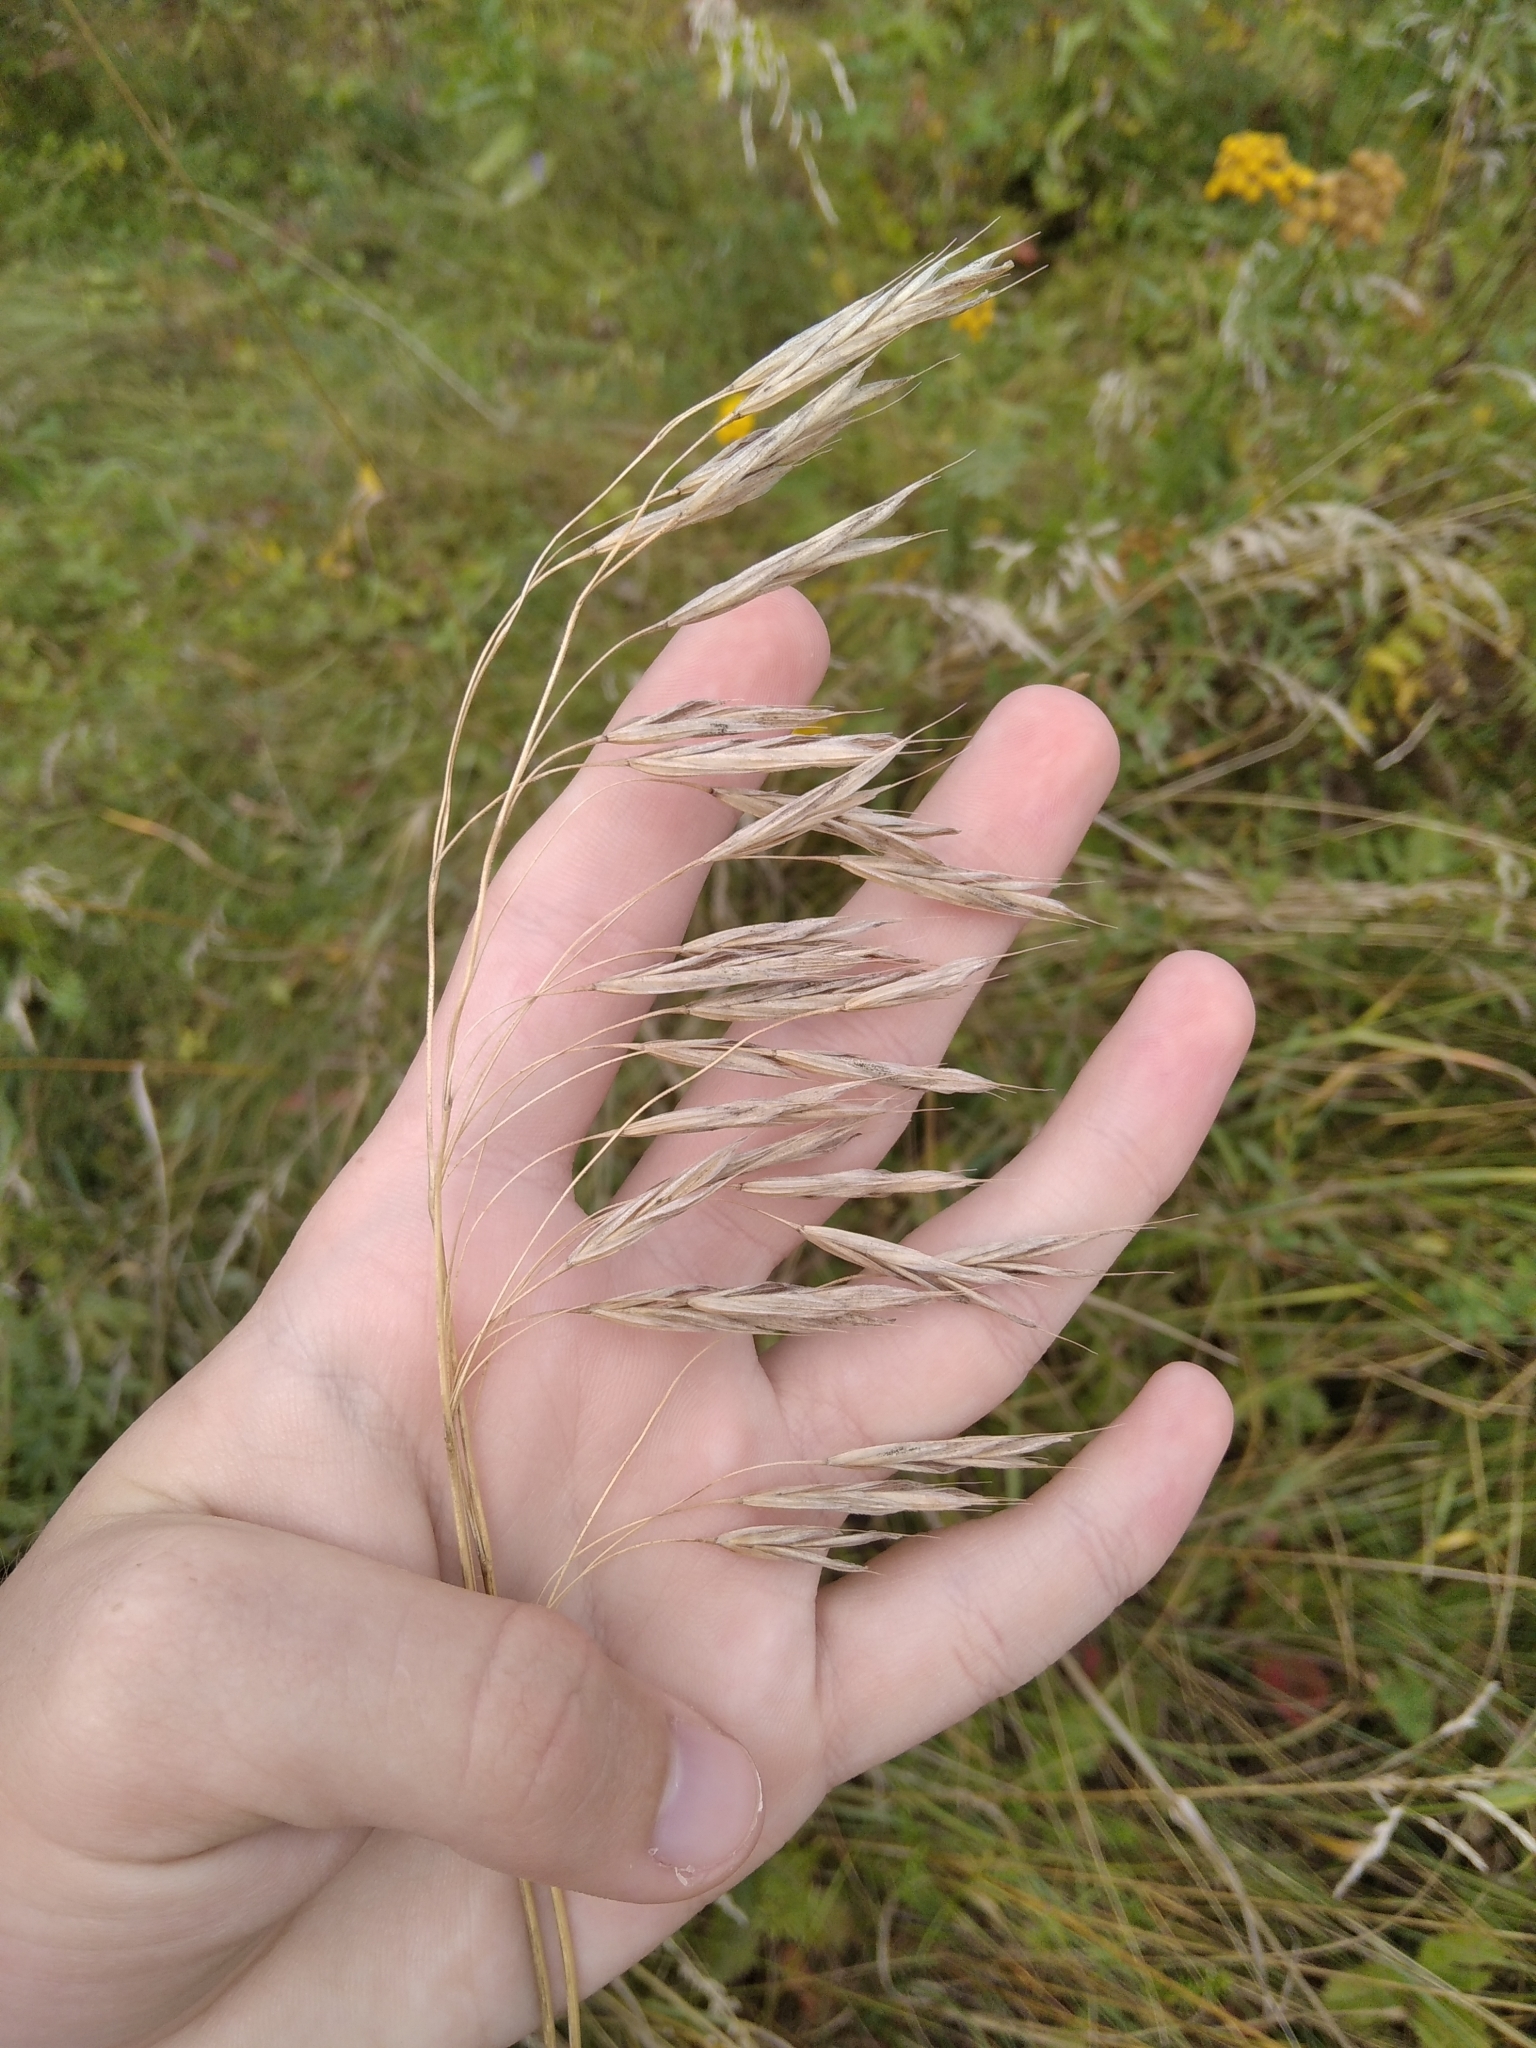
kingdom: Plantae
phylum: Tracheophyta
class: Liliopsida
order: Poales
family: Poaceae
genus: Bromus
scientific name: Bromus inermis
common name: Smooth brome
